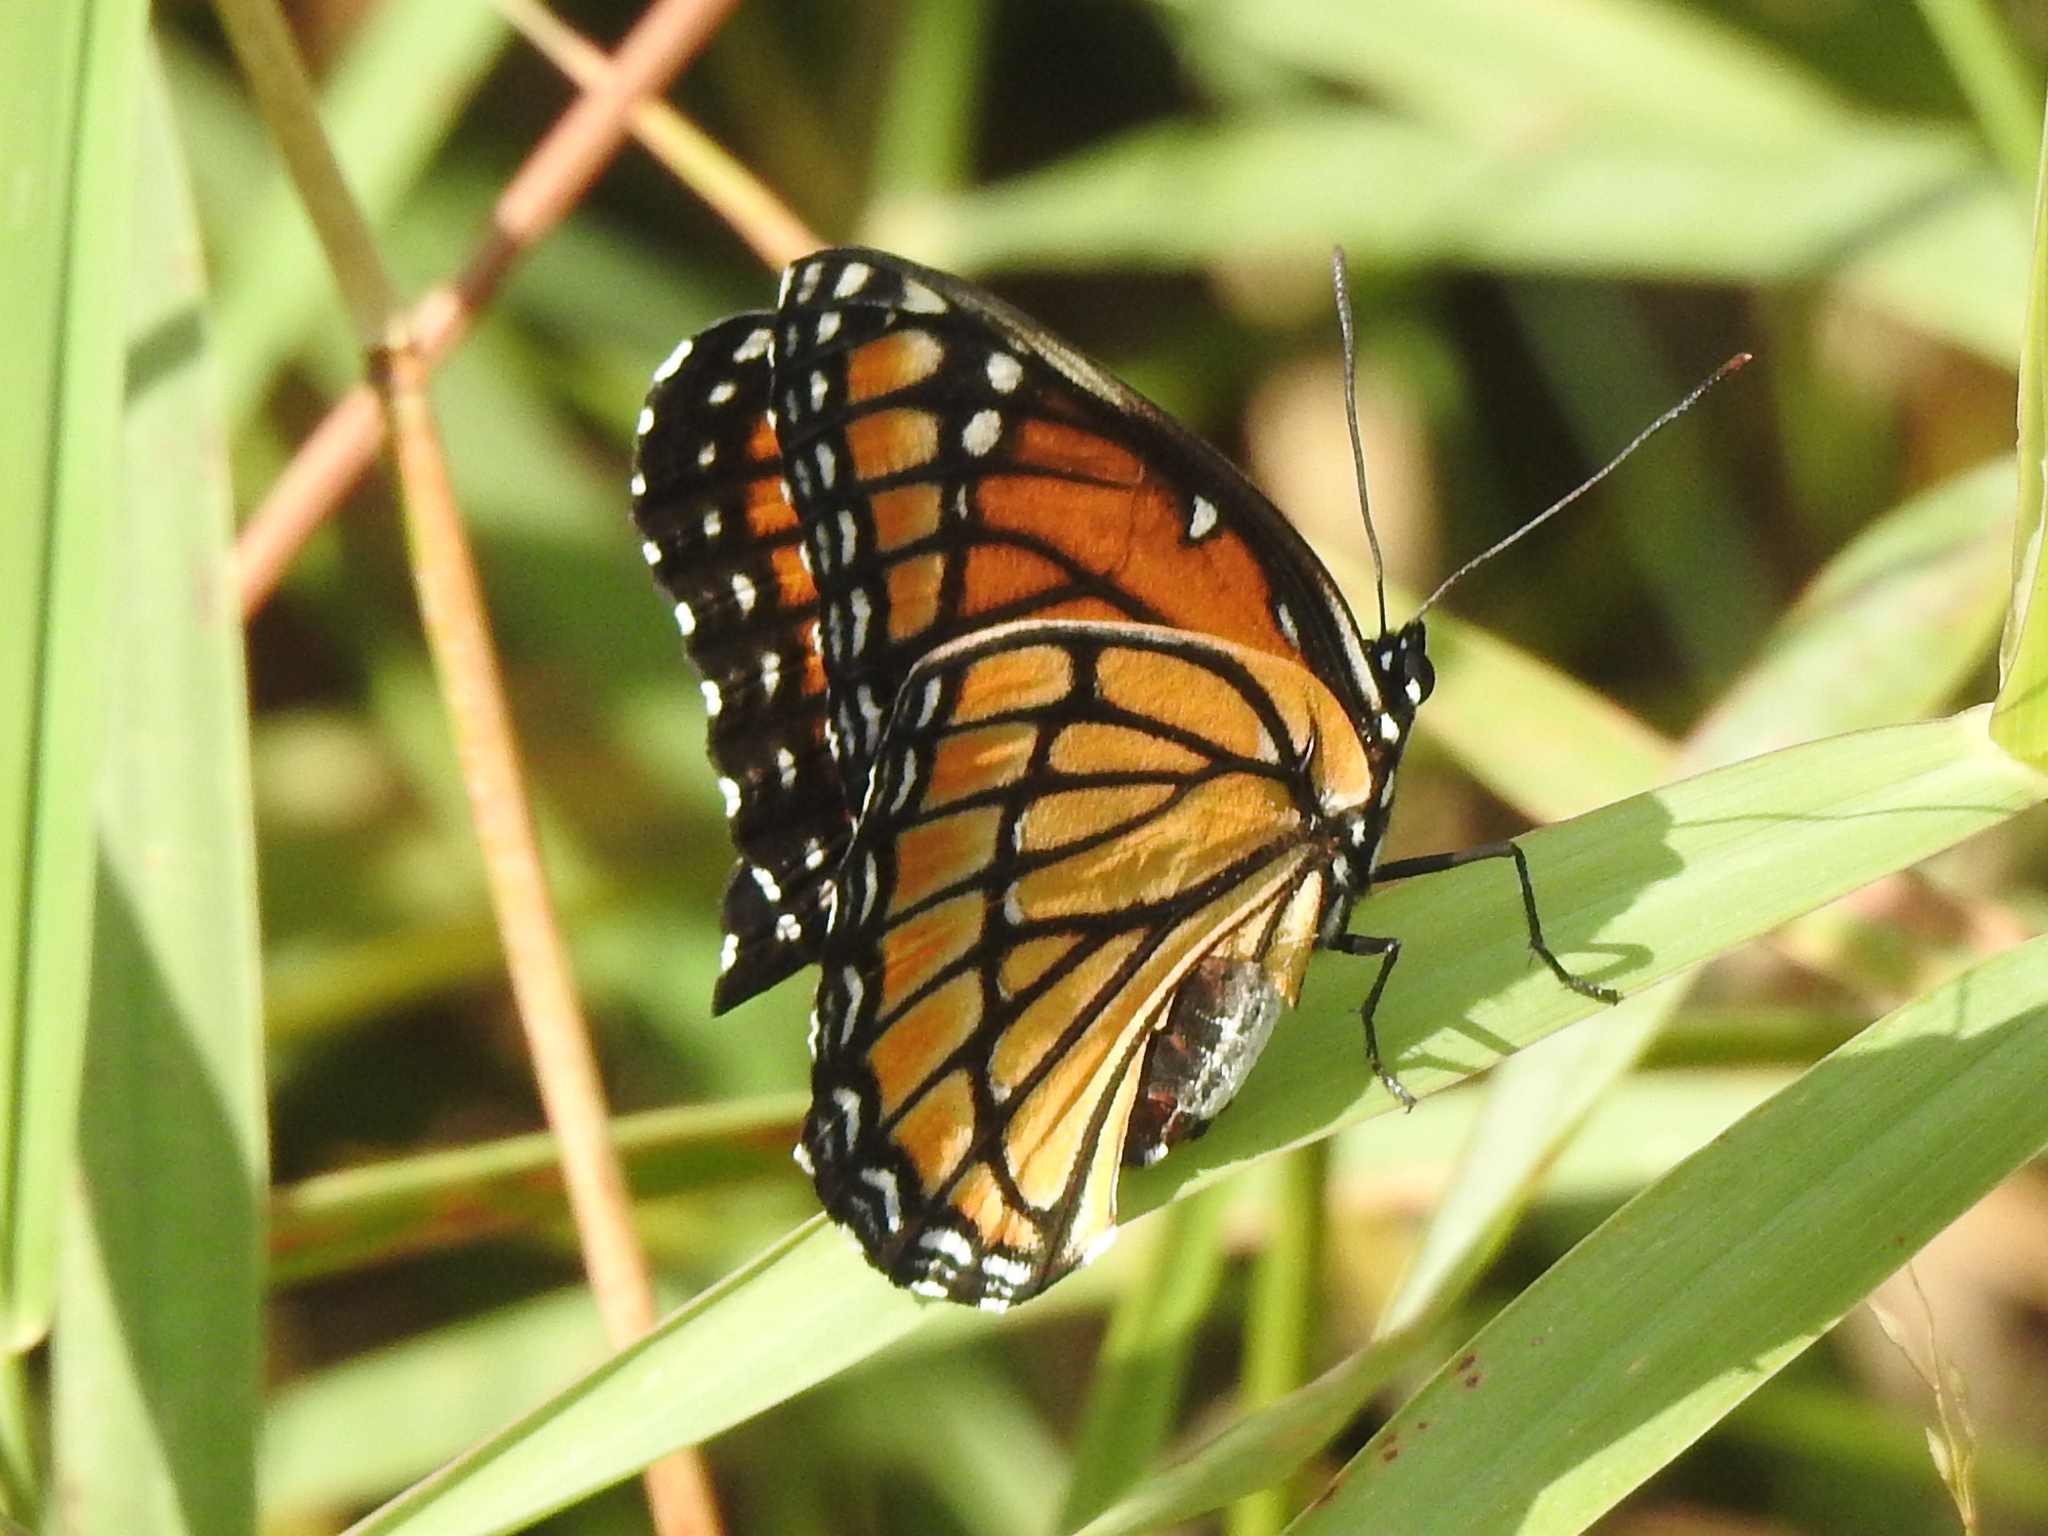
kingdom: Animalia
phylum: Arthropoda
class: Insecta
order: Lepidoptera
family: Nymphalidae
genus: Limenitis
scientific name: Limenitis archippus
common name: Viceroy
